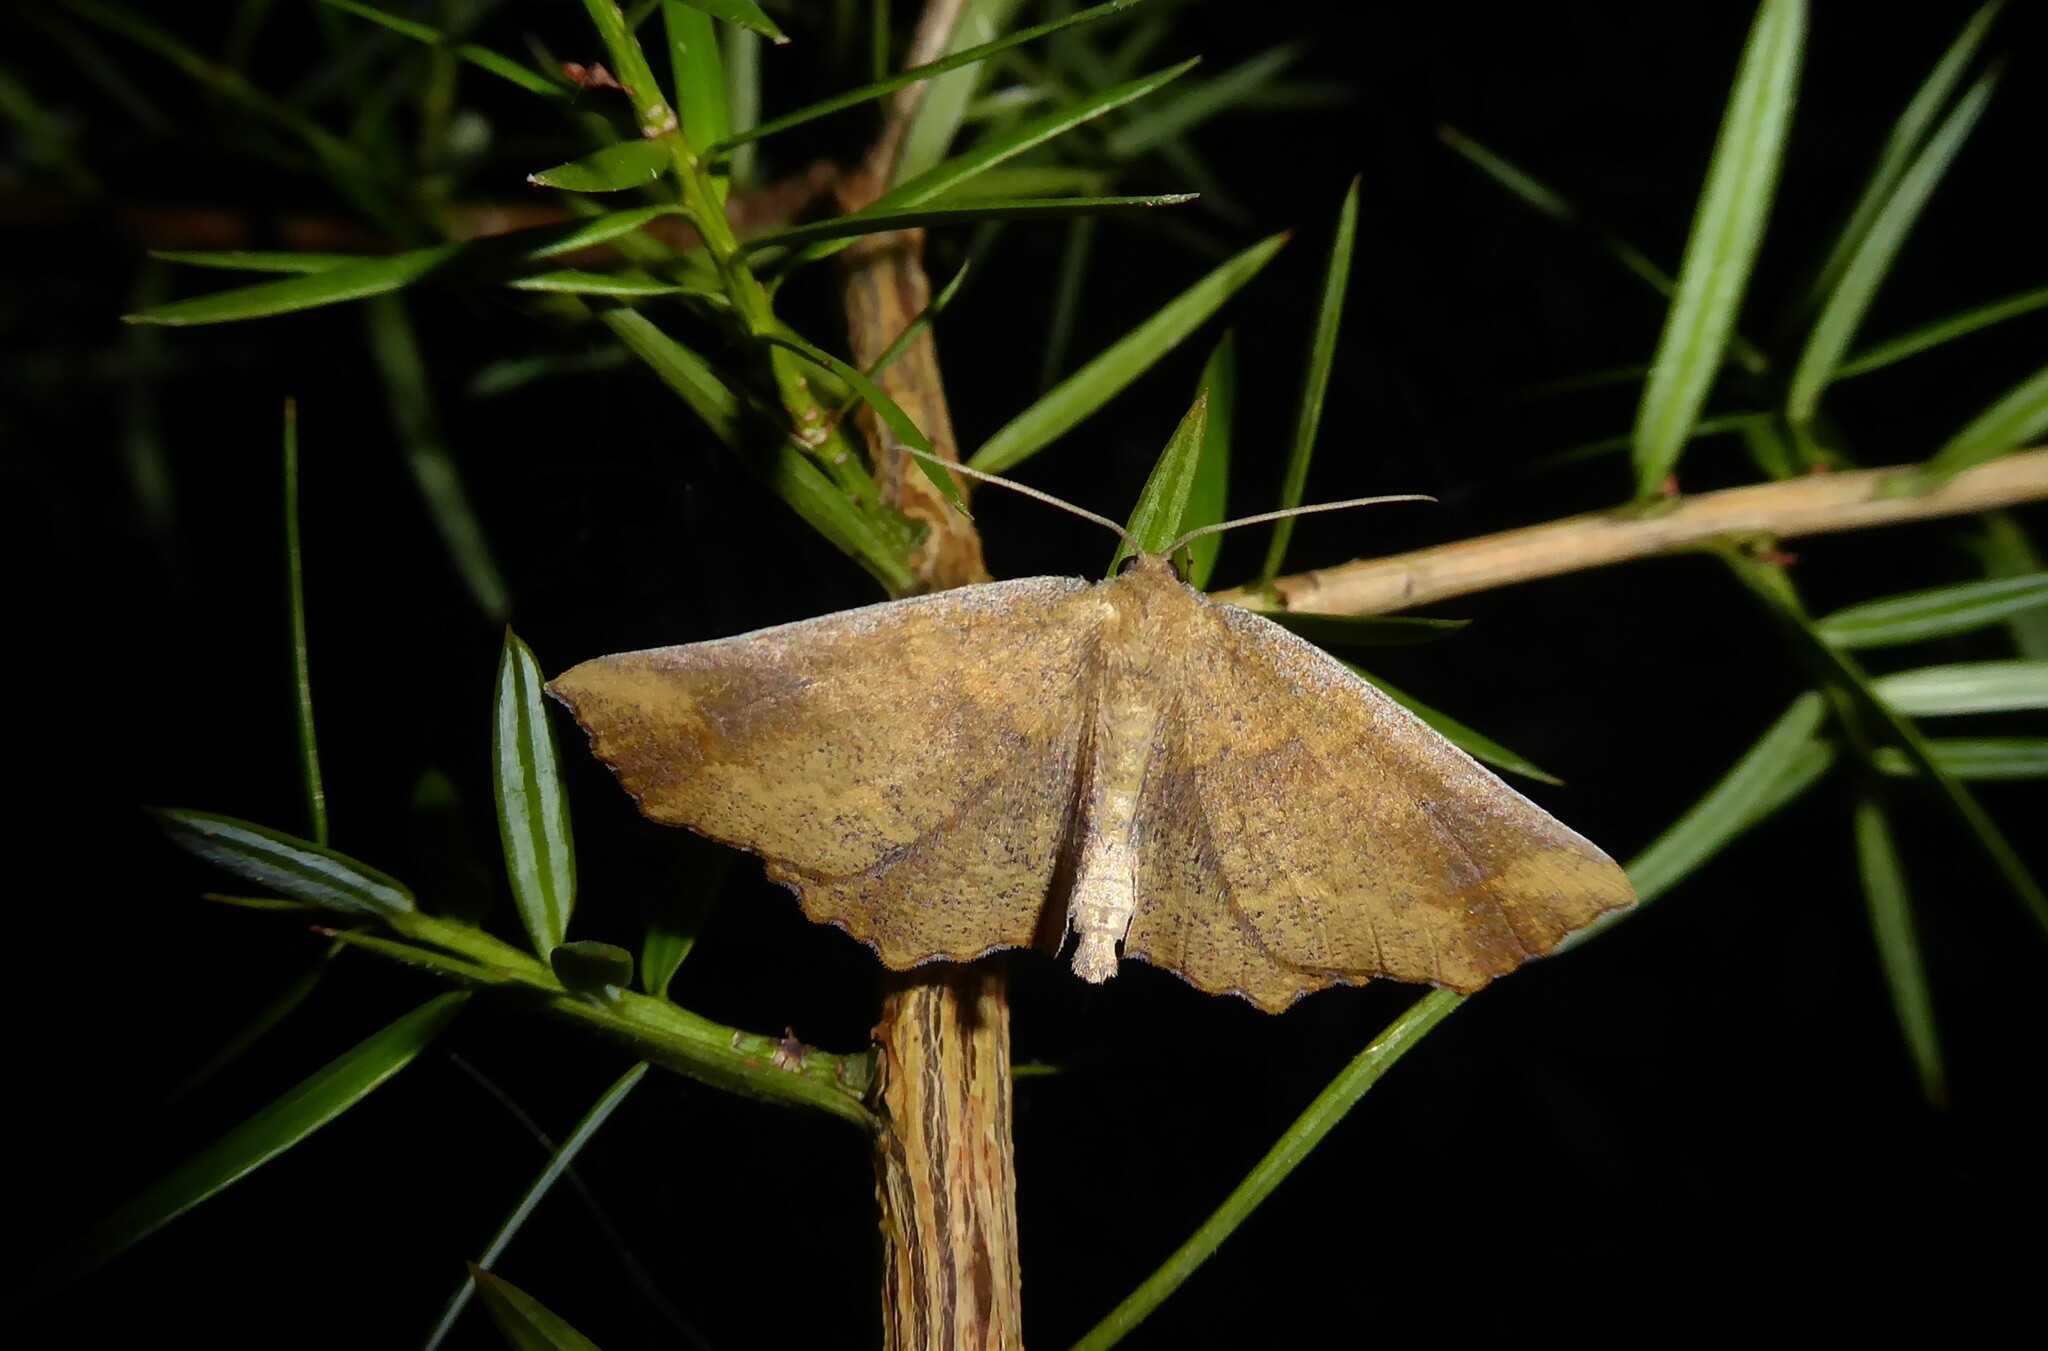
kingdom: Animalia
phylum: Arthropoda
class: Insecta
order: Lepidoptera
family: Geometridae
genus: Xyridacma
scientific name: Xyridacma ustaria
